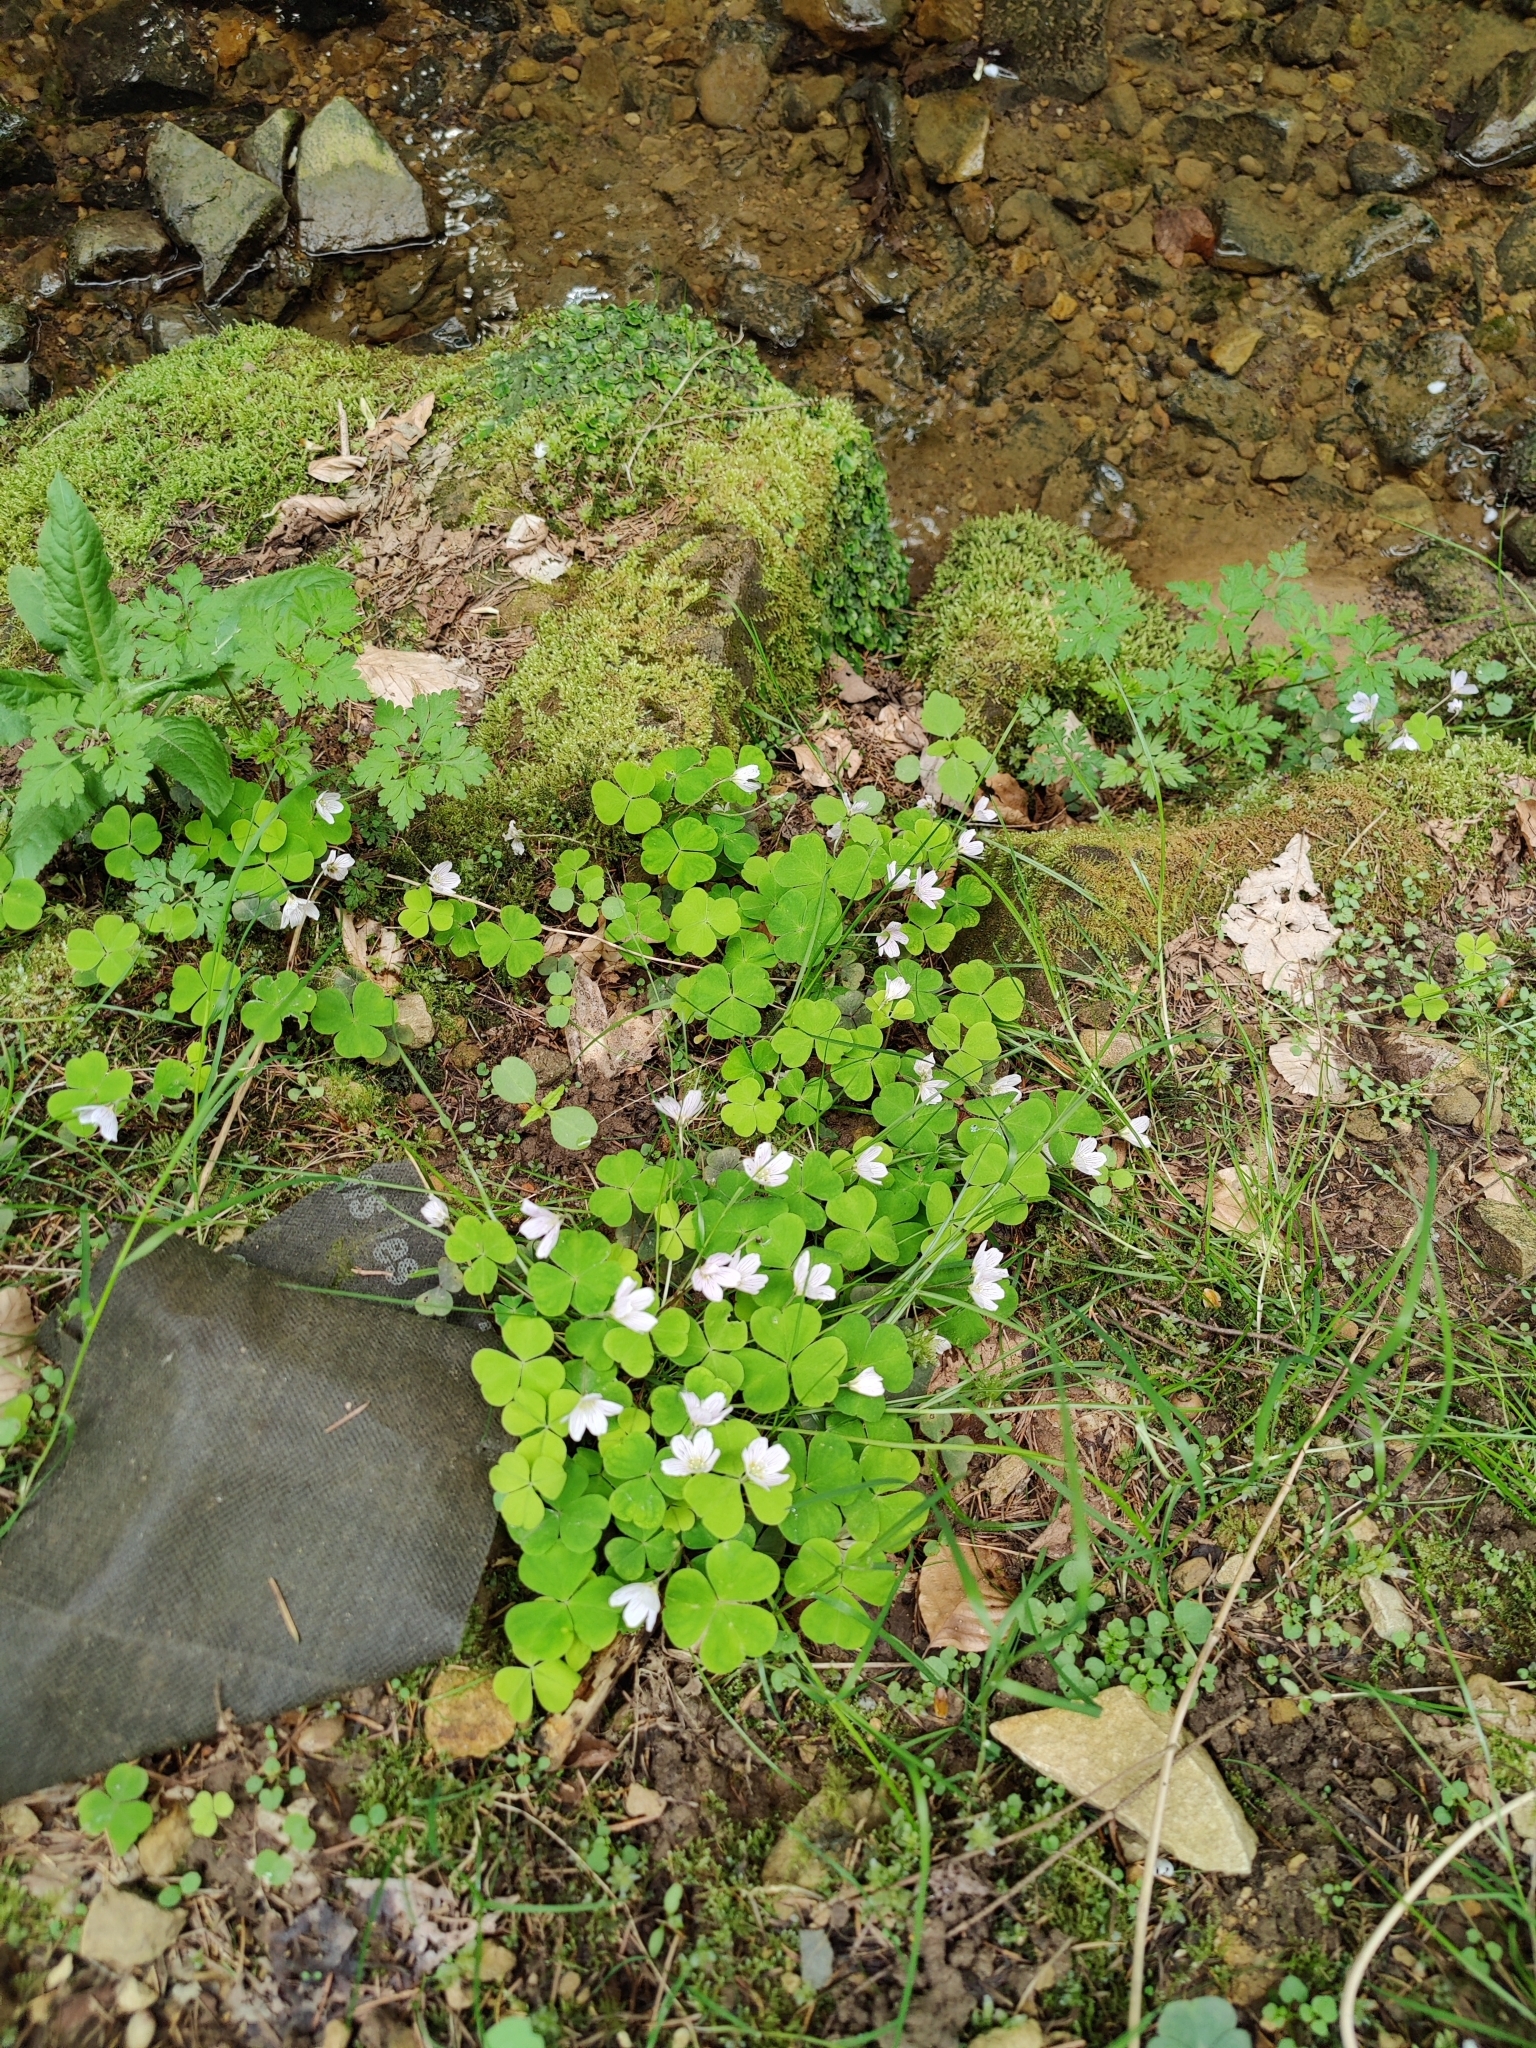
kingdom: Plantae
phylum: Tracheophyta
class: Magnoliopsida
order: Oxalidales
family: Oxalidaceae
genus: Oxalis
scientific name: Oxalis acetosella
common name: Wood-sorrel
